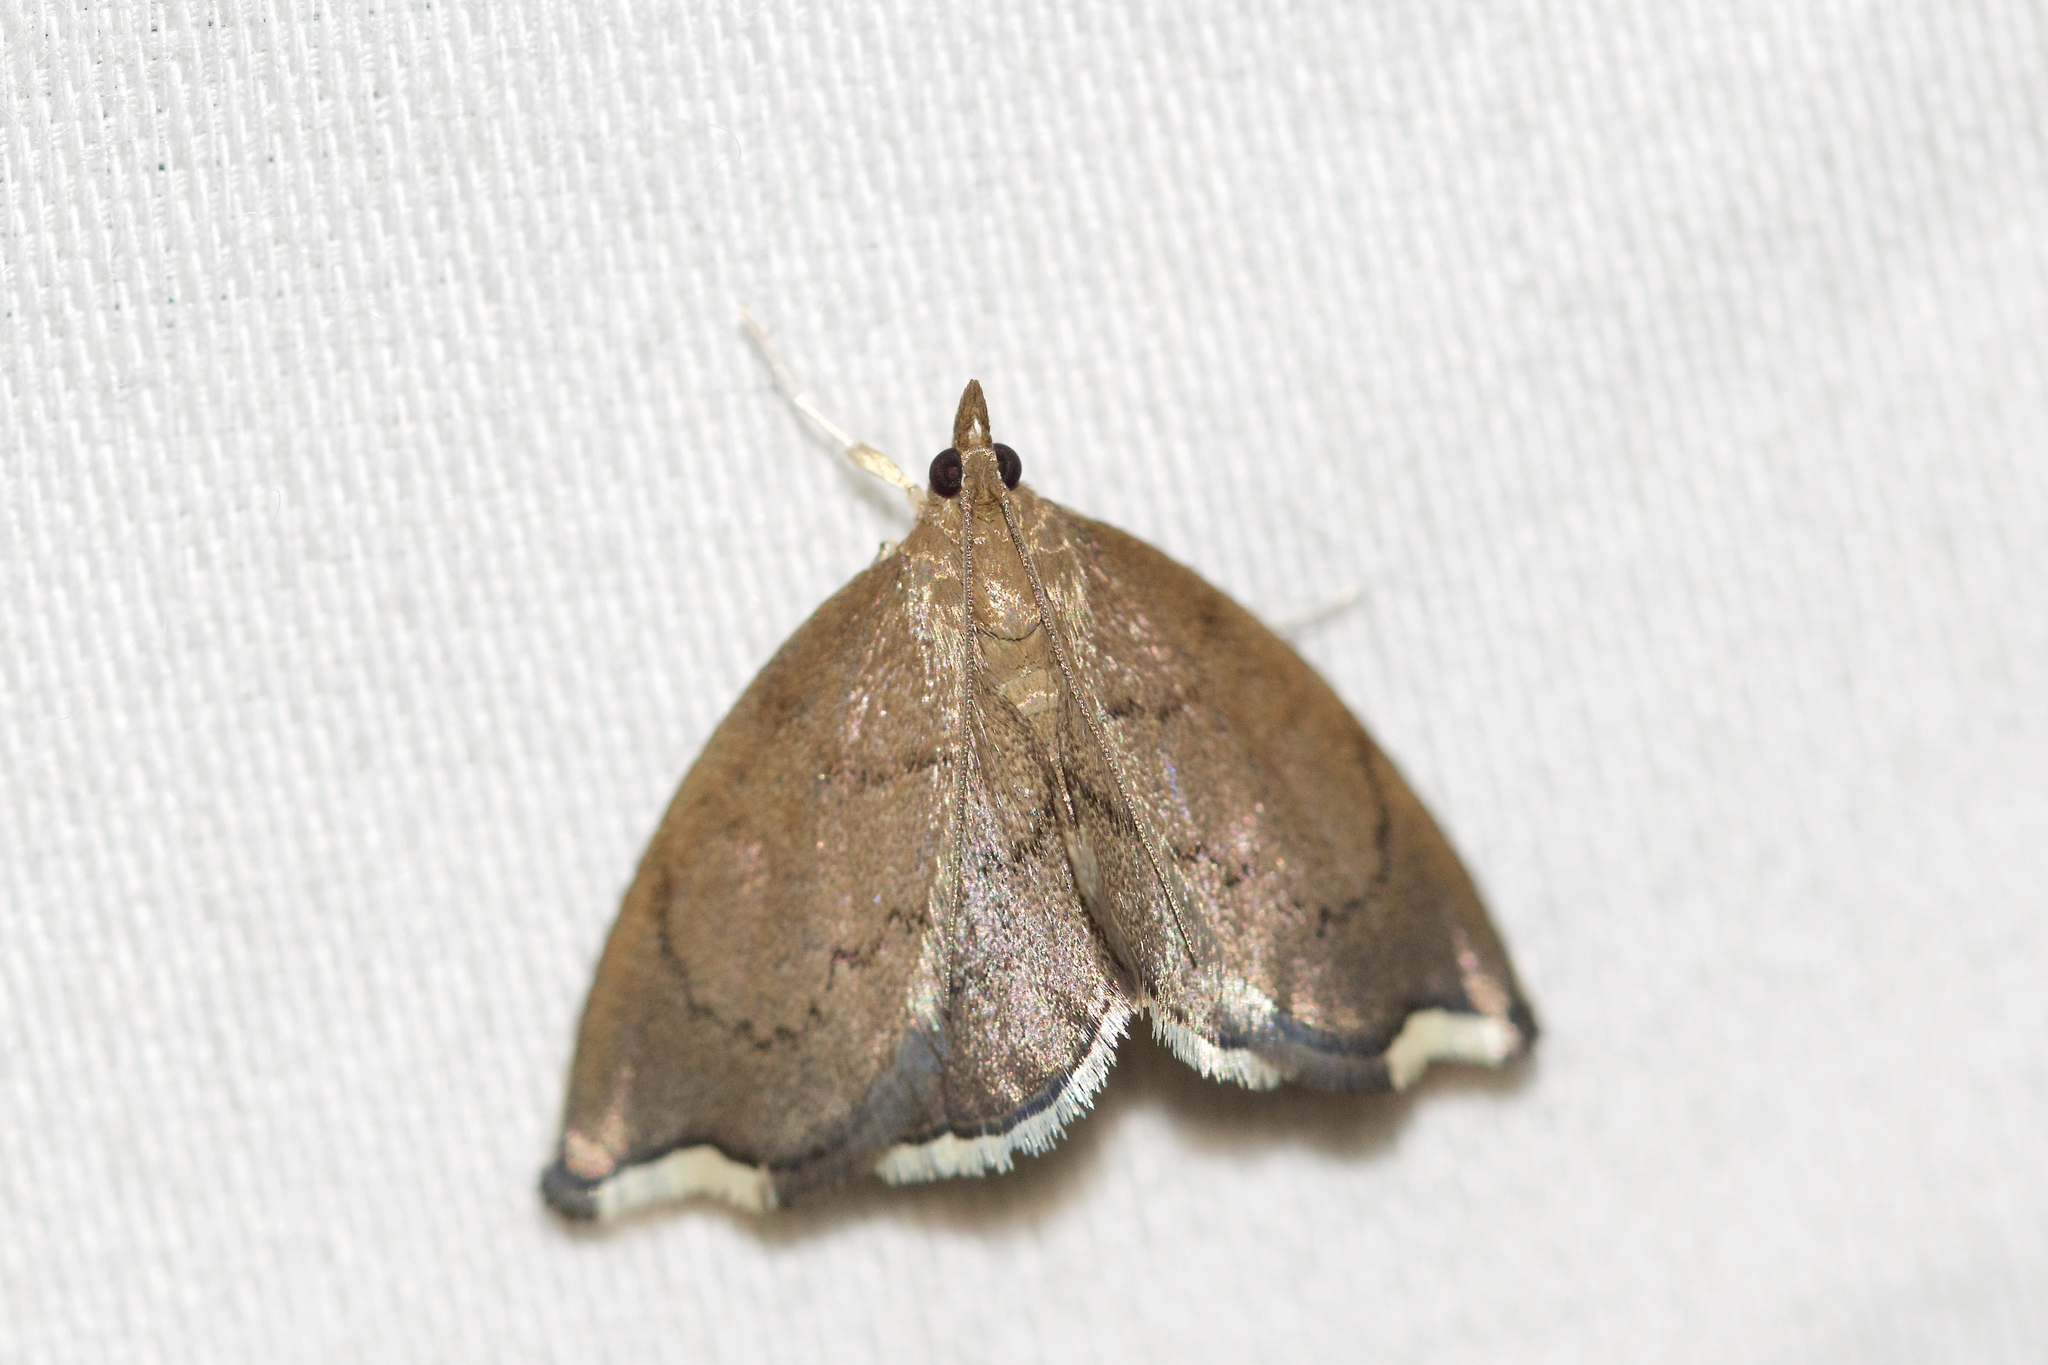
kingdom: Animalia
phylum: Arthropoda
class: Insecta
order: Lepidoptera
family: Crambidae
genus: Perispasta
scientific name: Perispasta caeculalis
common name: Titian peale's moth
